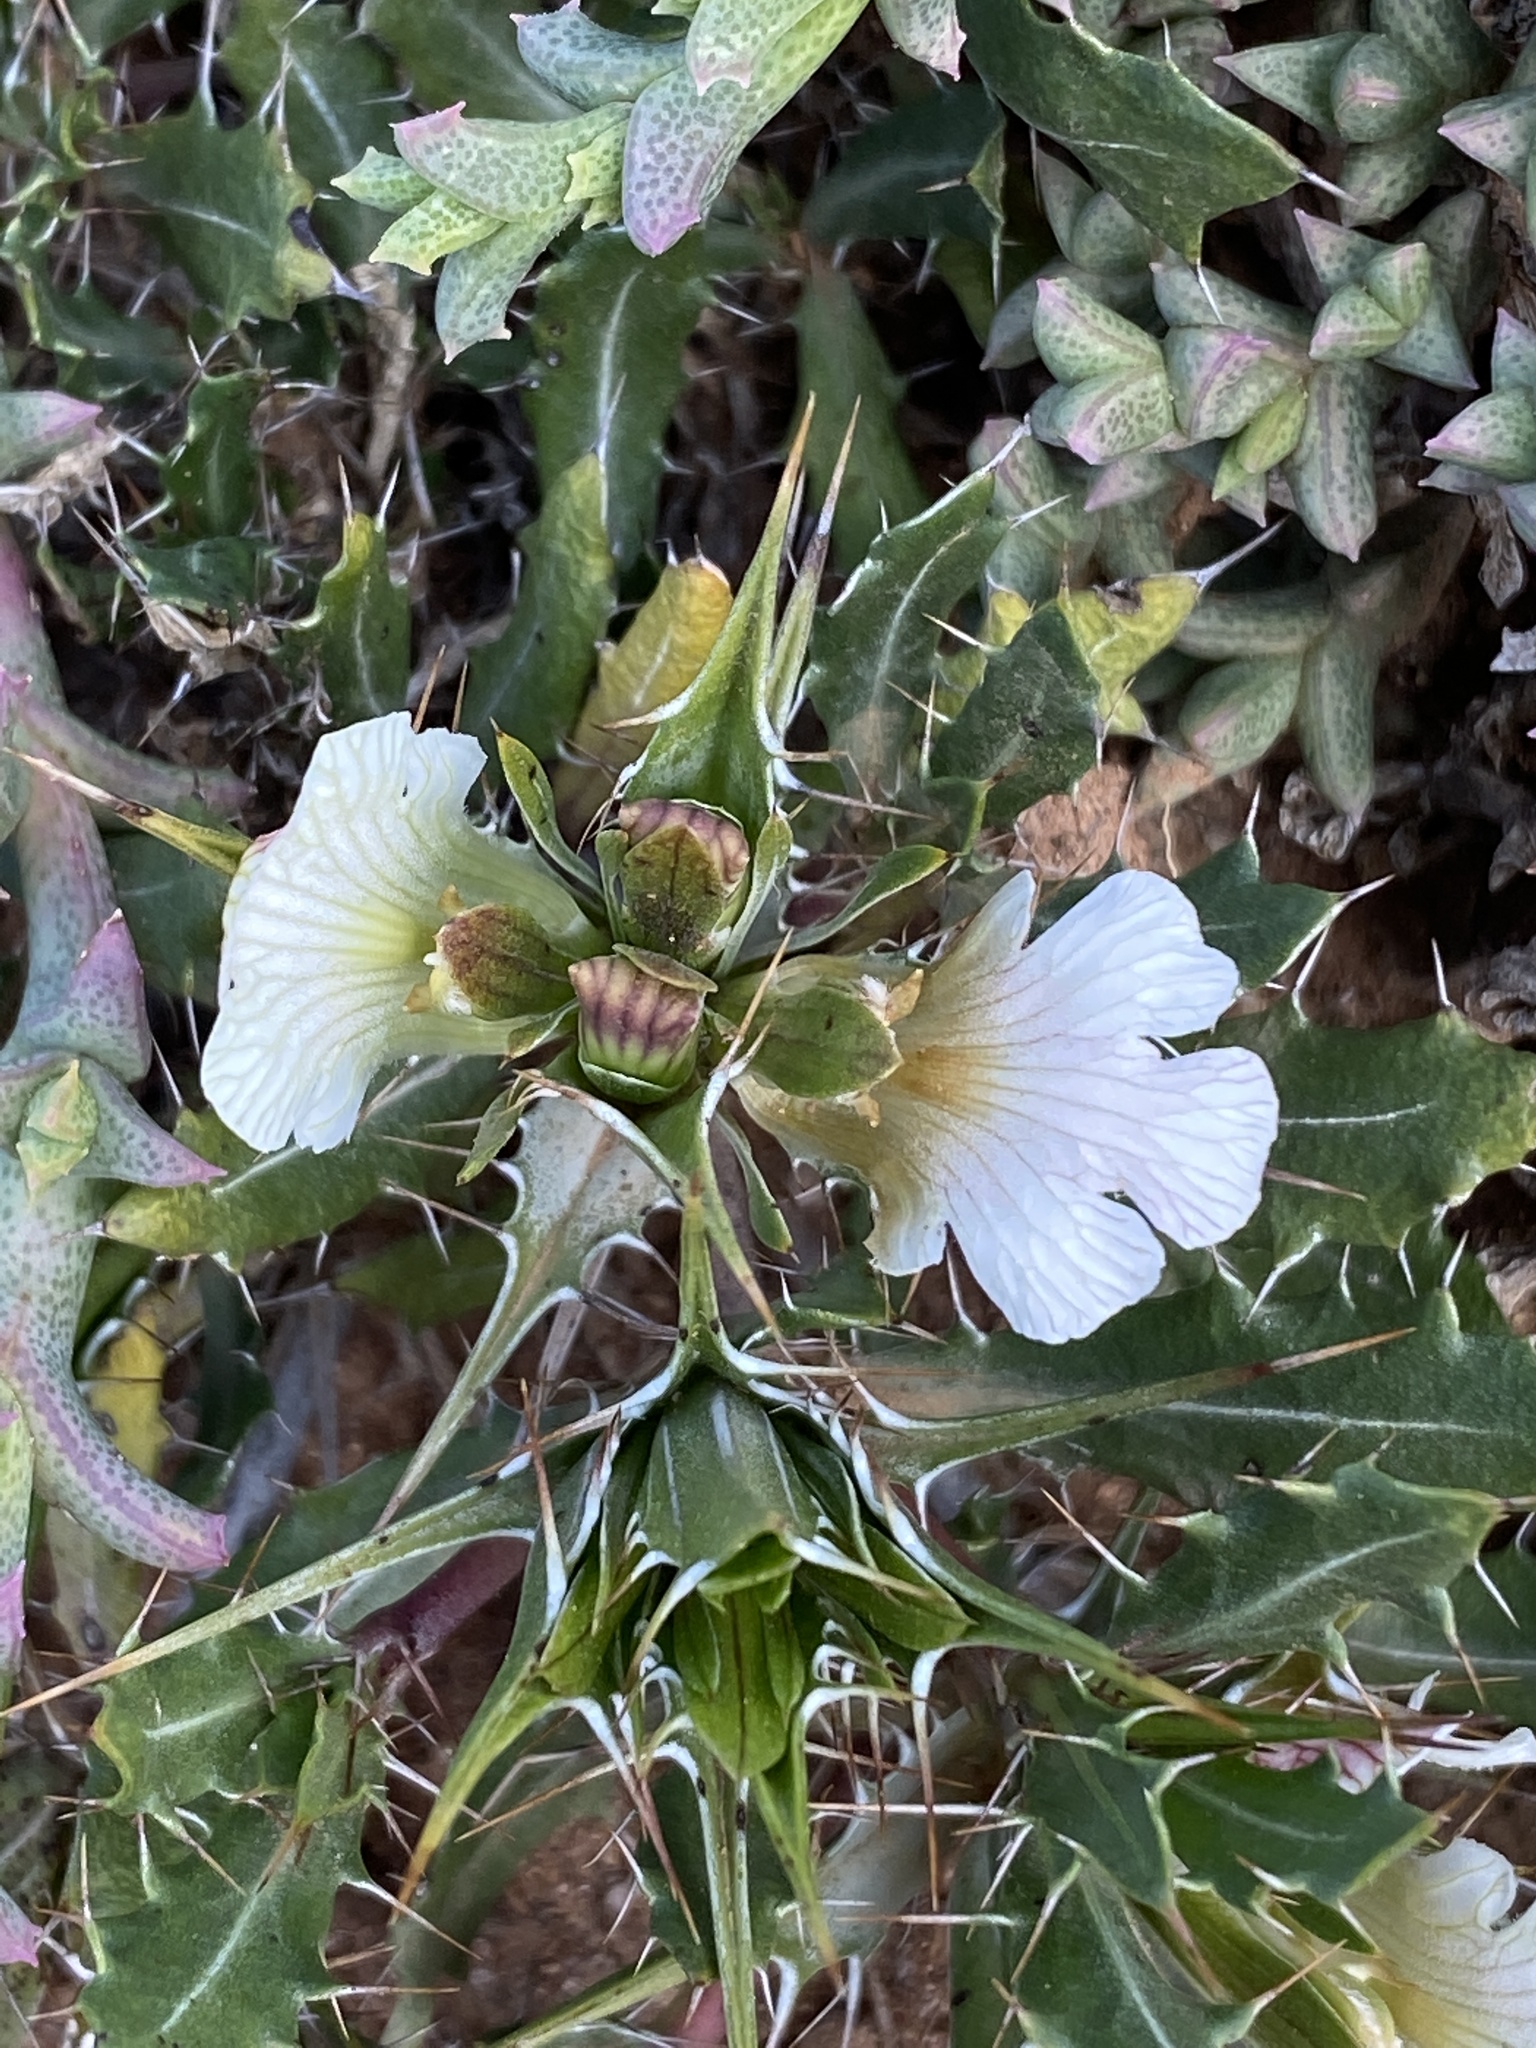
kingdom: Plantae
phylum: Tracheophyta
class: Magnoliopsida
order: Lamiales
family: Acanthaceae
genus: Blepharis
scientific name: Blepharis capensis
